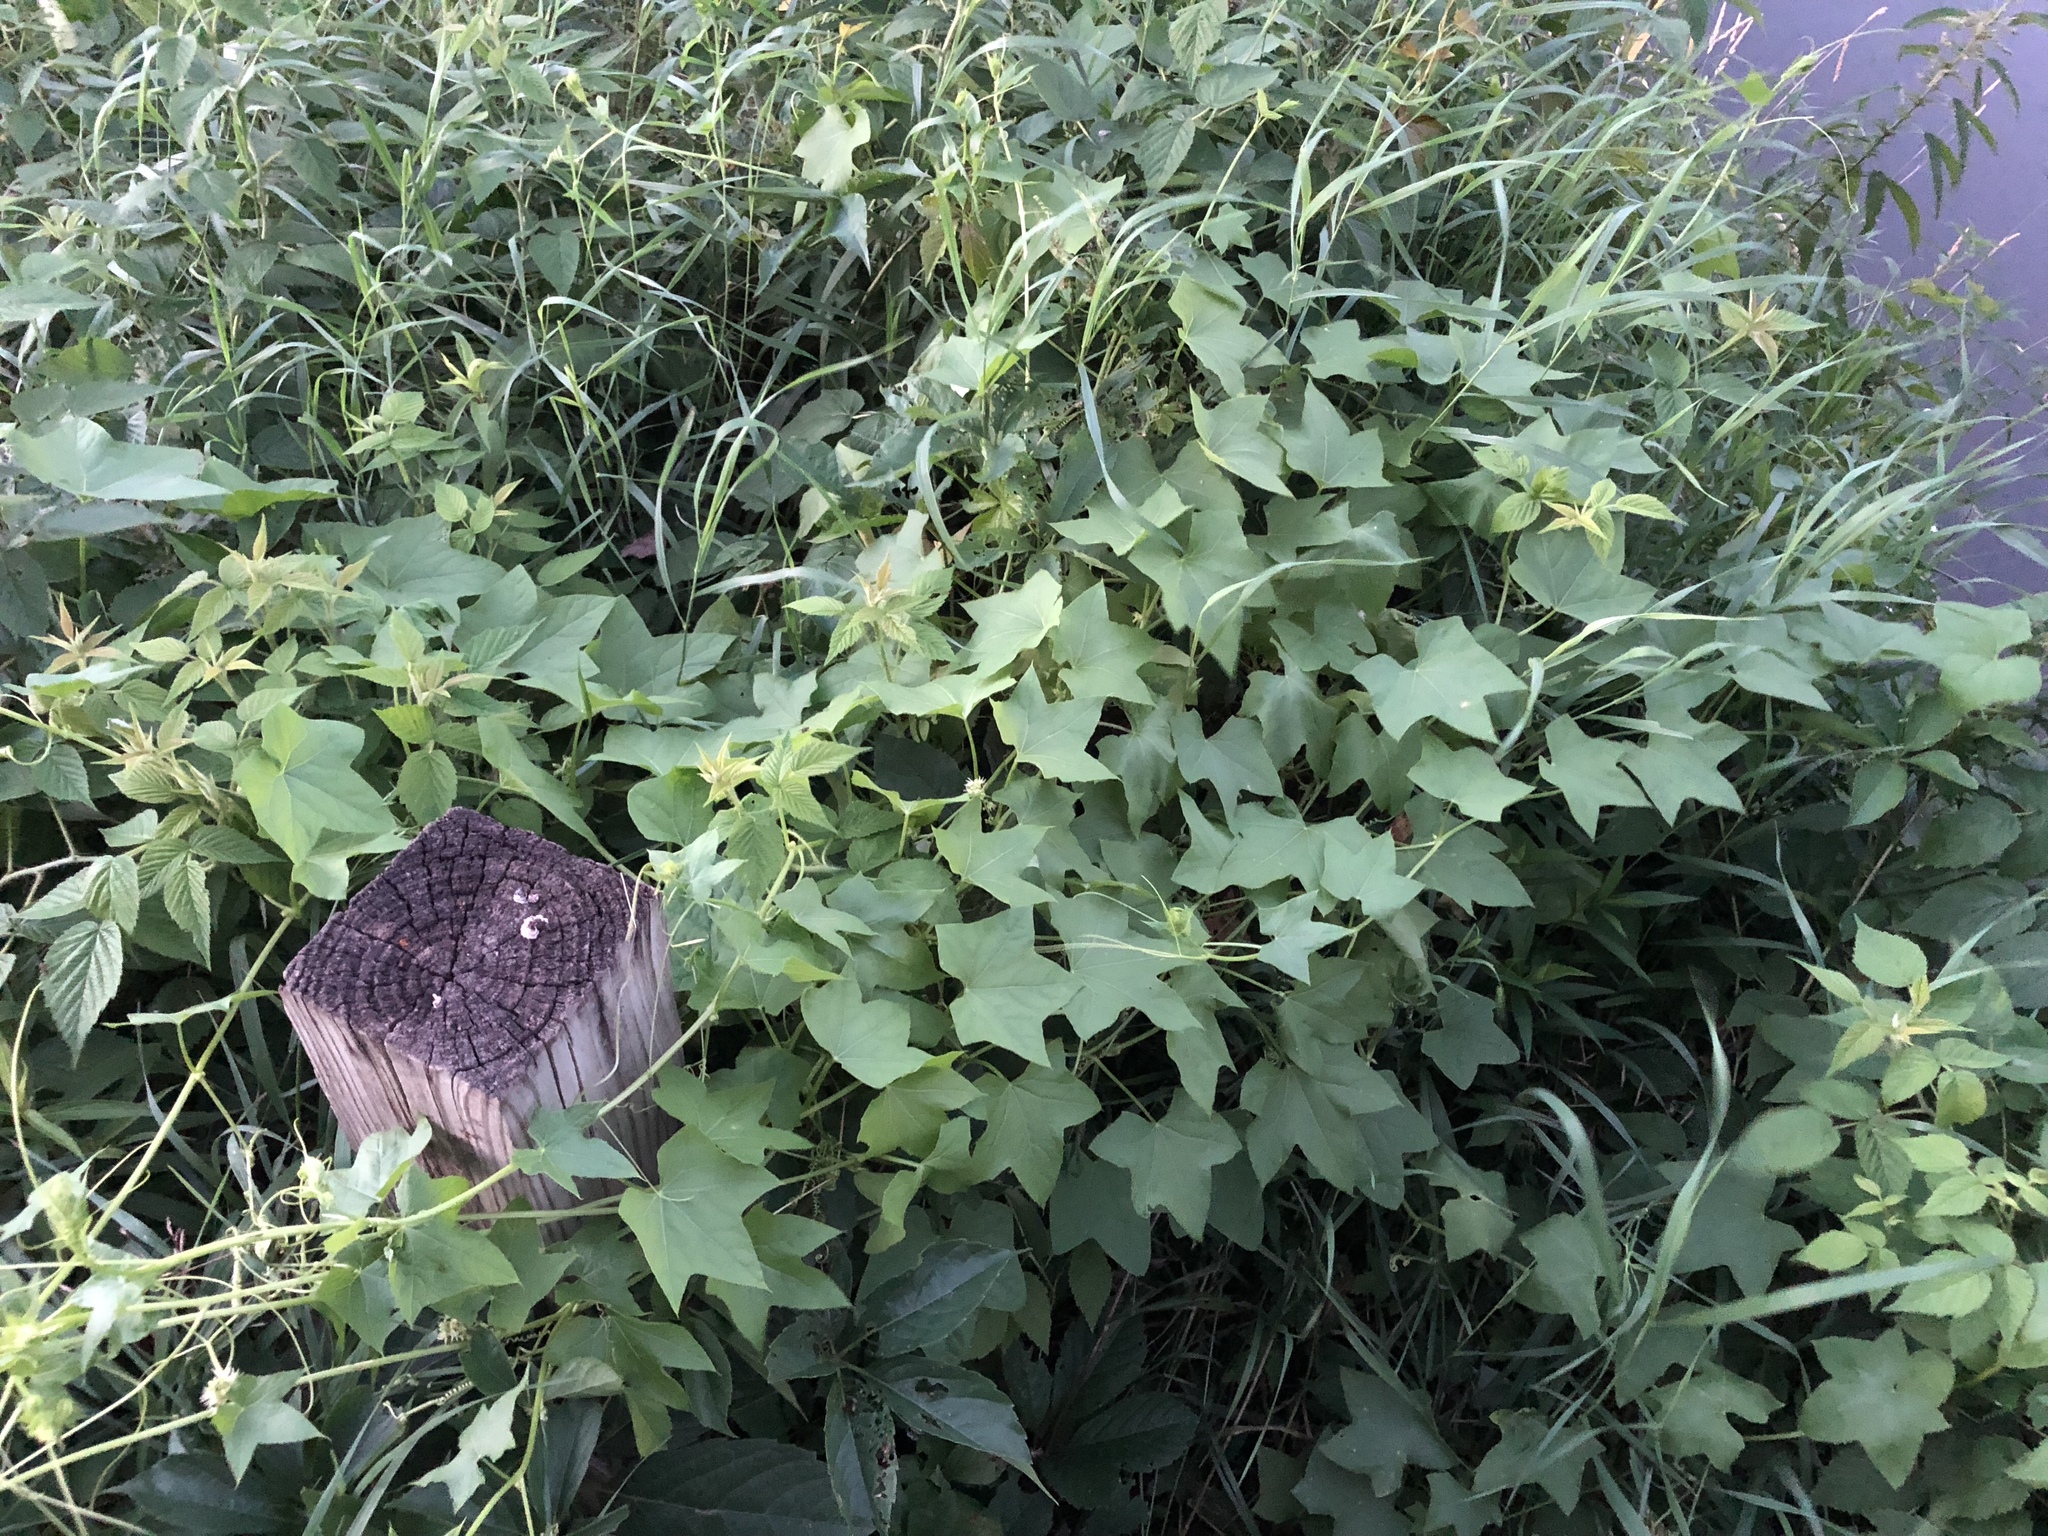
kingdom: Plantae
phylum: Tracheophyta
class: Magnoliopsida
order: Cucurbitales
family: Cucurbitaceae
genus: Echinocystis
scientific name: Echinocystis lobata
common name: Wild cucumber
